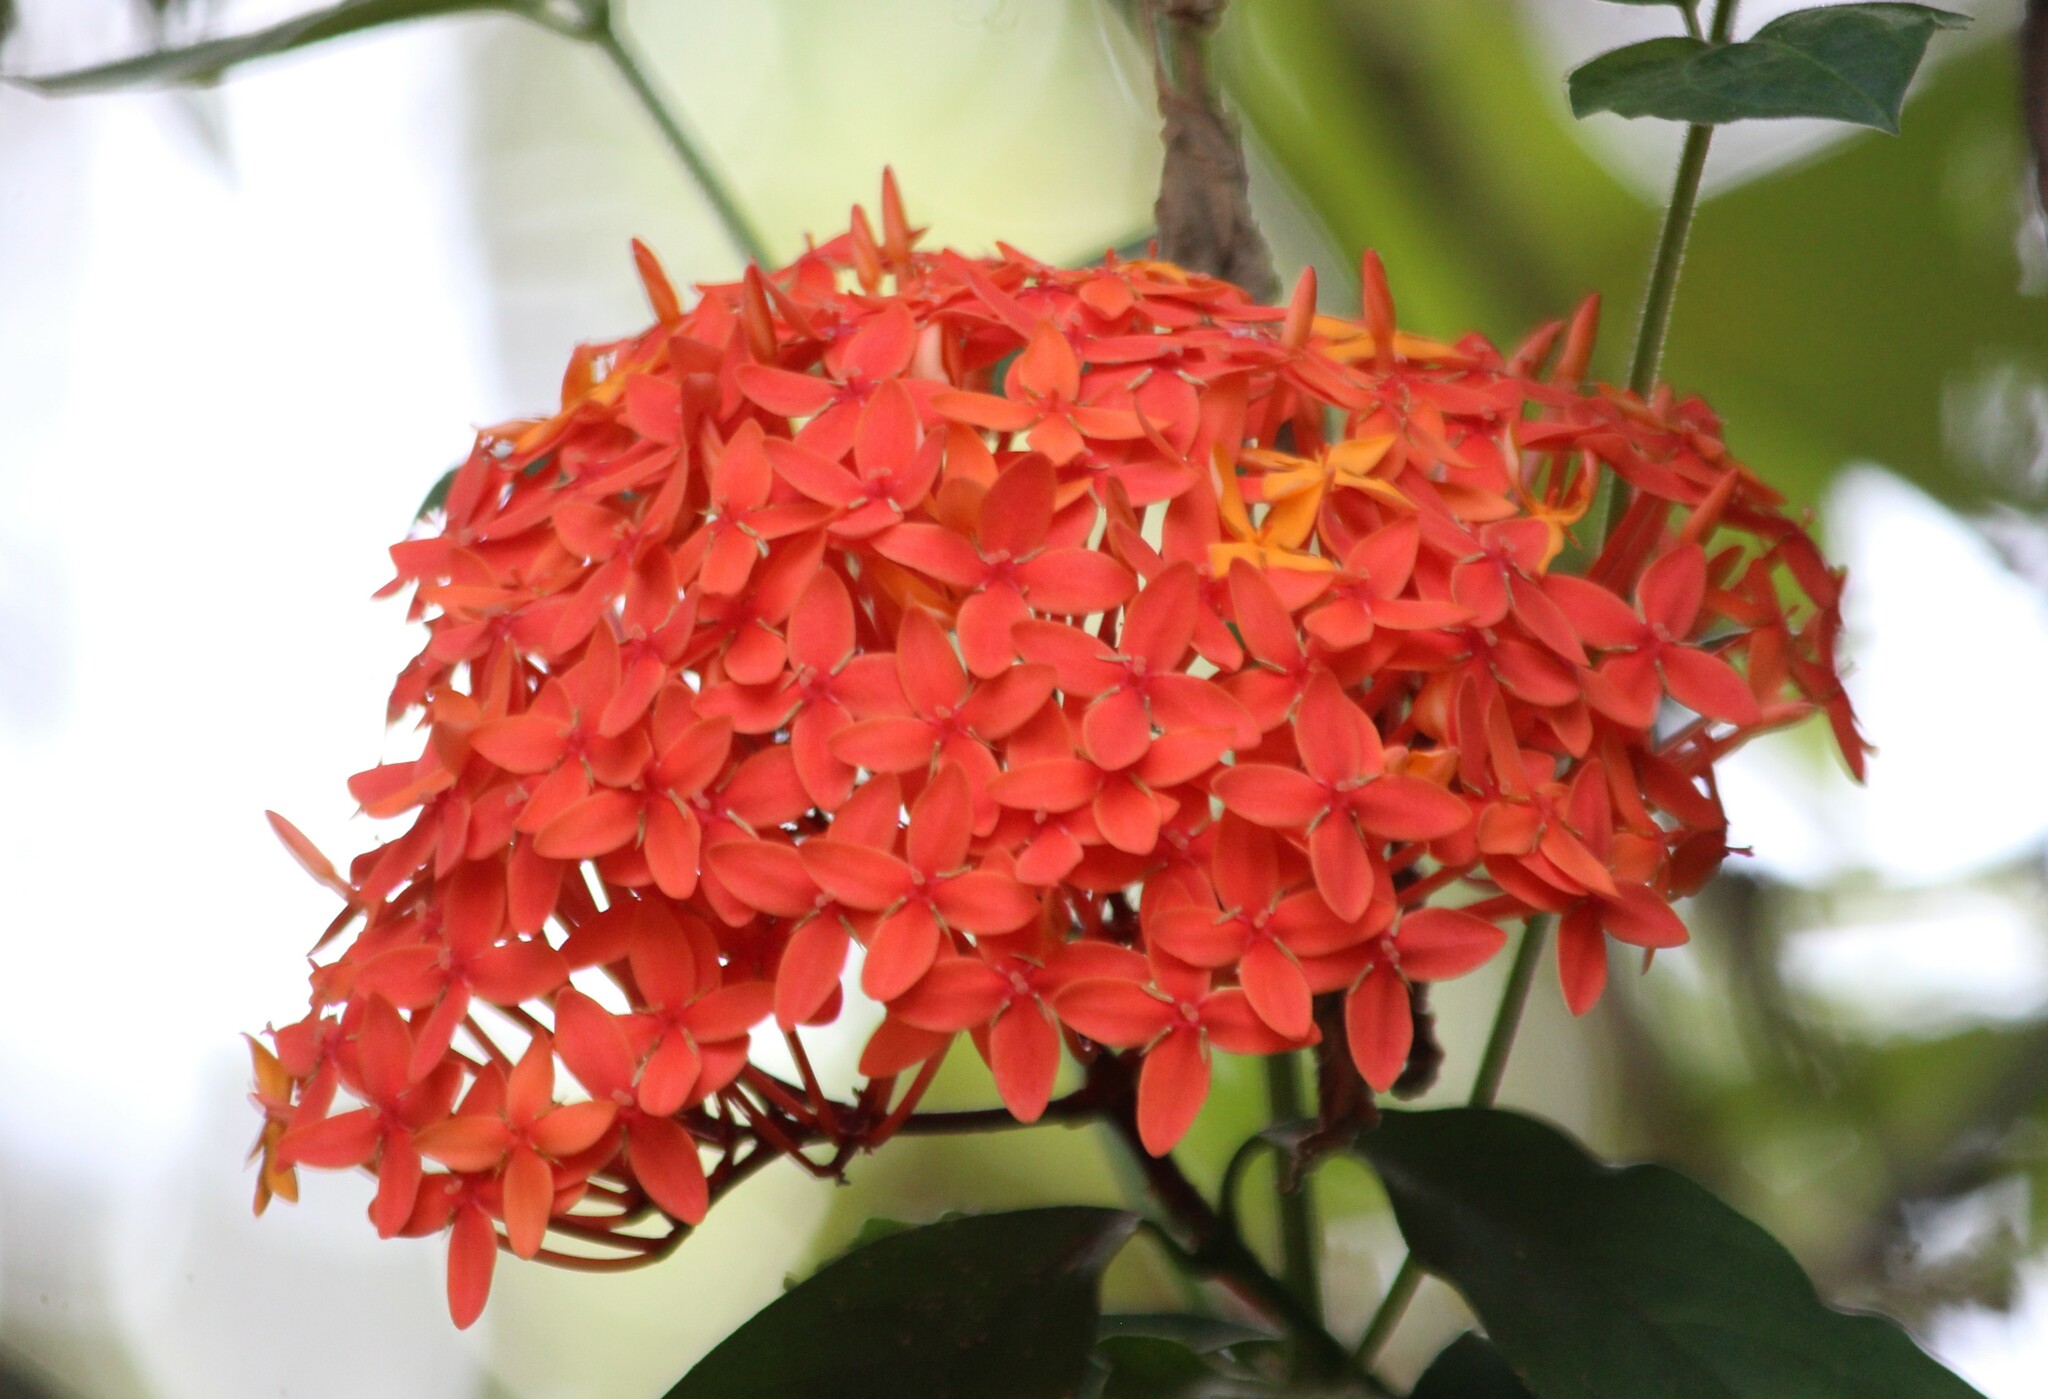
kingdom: Plantae
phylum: Tracheophyta
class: Magnoliopsida
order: Gentianales
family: Rubiaceae
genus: Ixora
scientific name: Ixora coccinea
